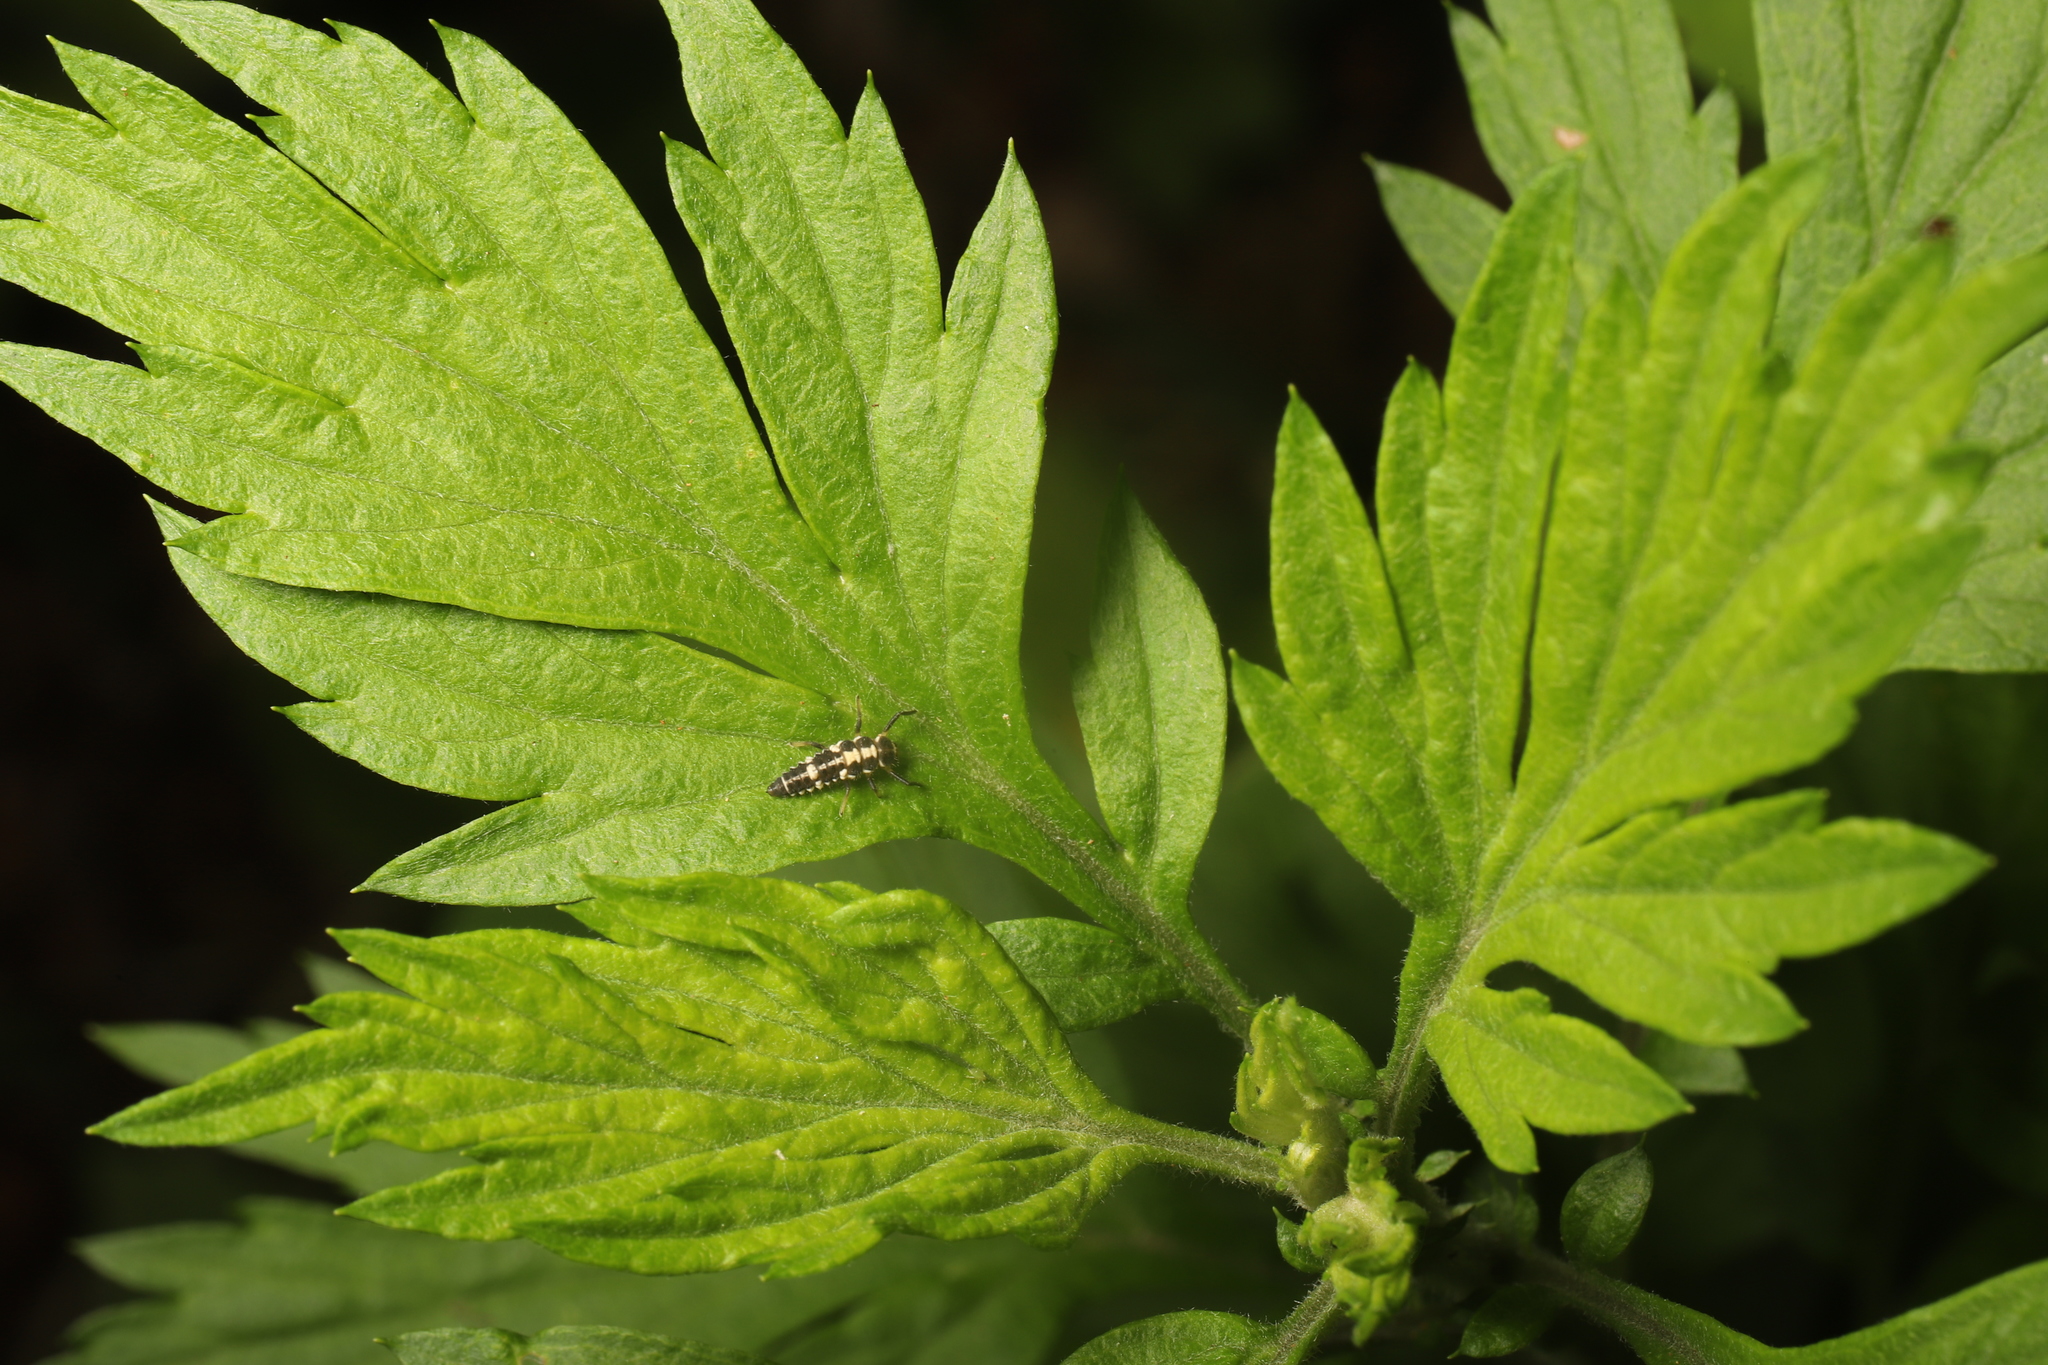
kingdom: Plantae
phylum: Tracheophyta
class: Magnoliopsida
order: Asterales
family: Asteraceae
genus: Artemisia
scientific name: Artemisia vulgaris
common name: Mugwort
